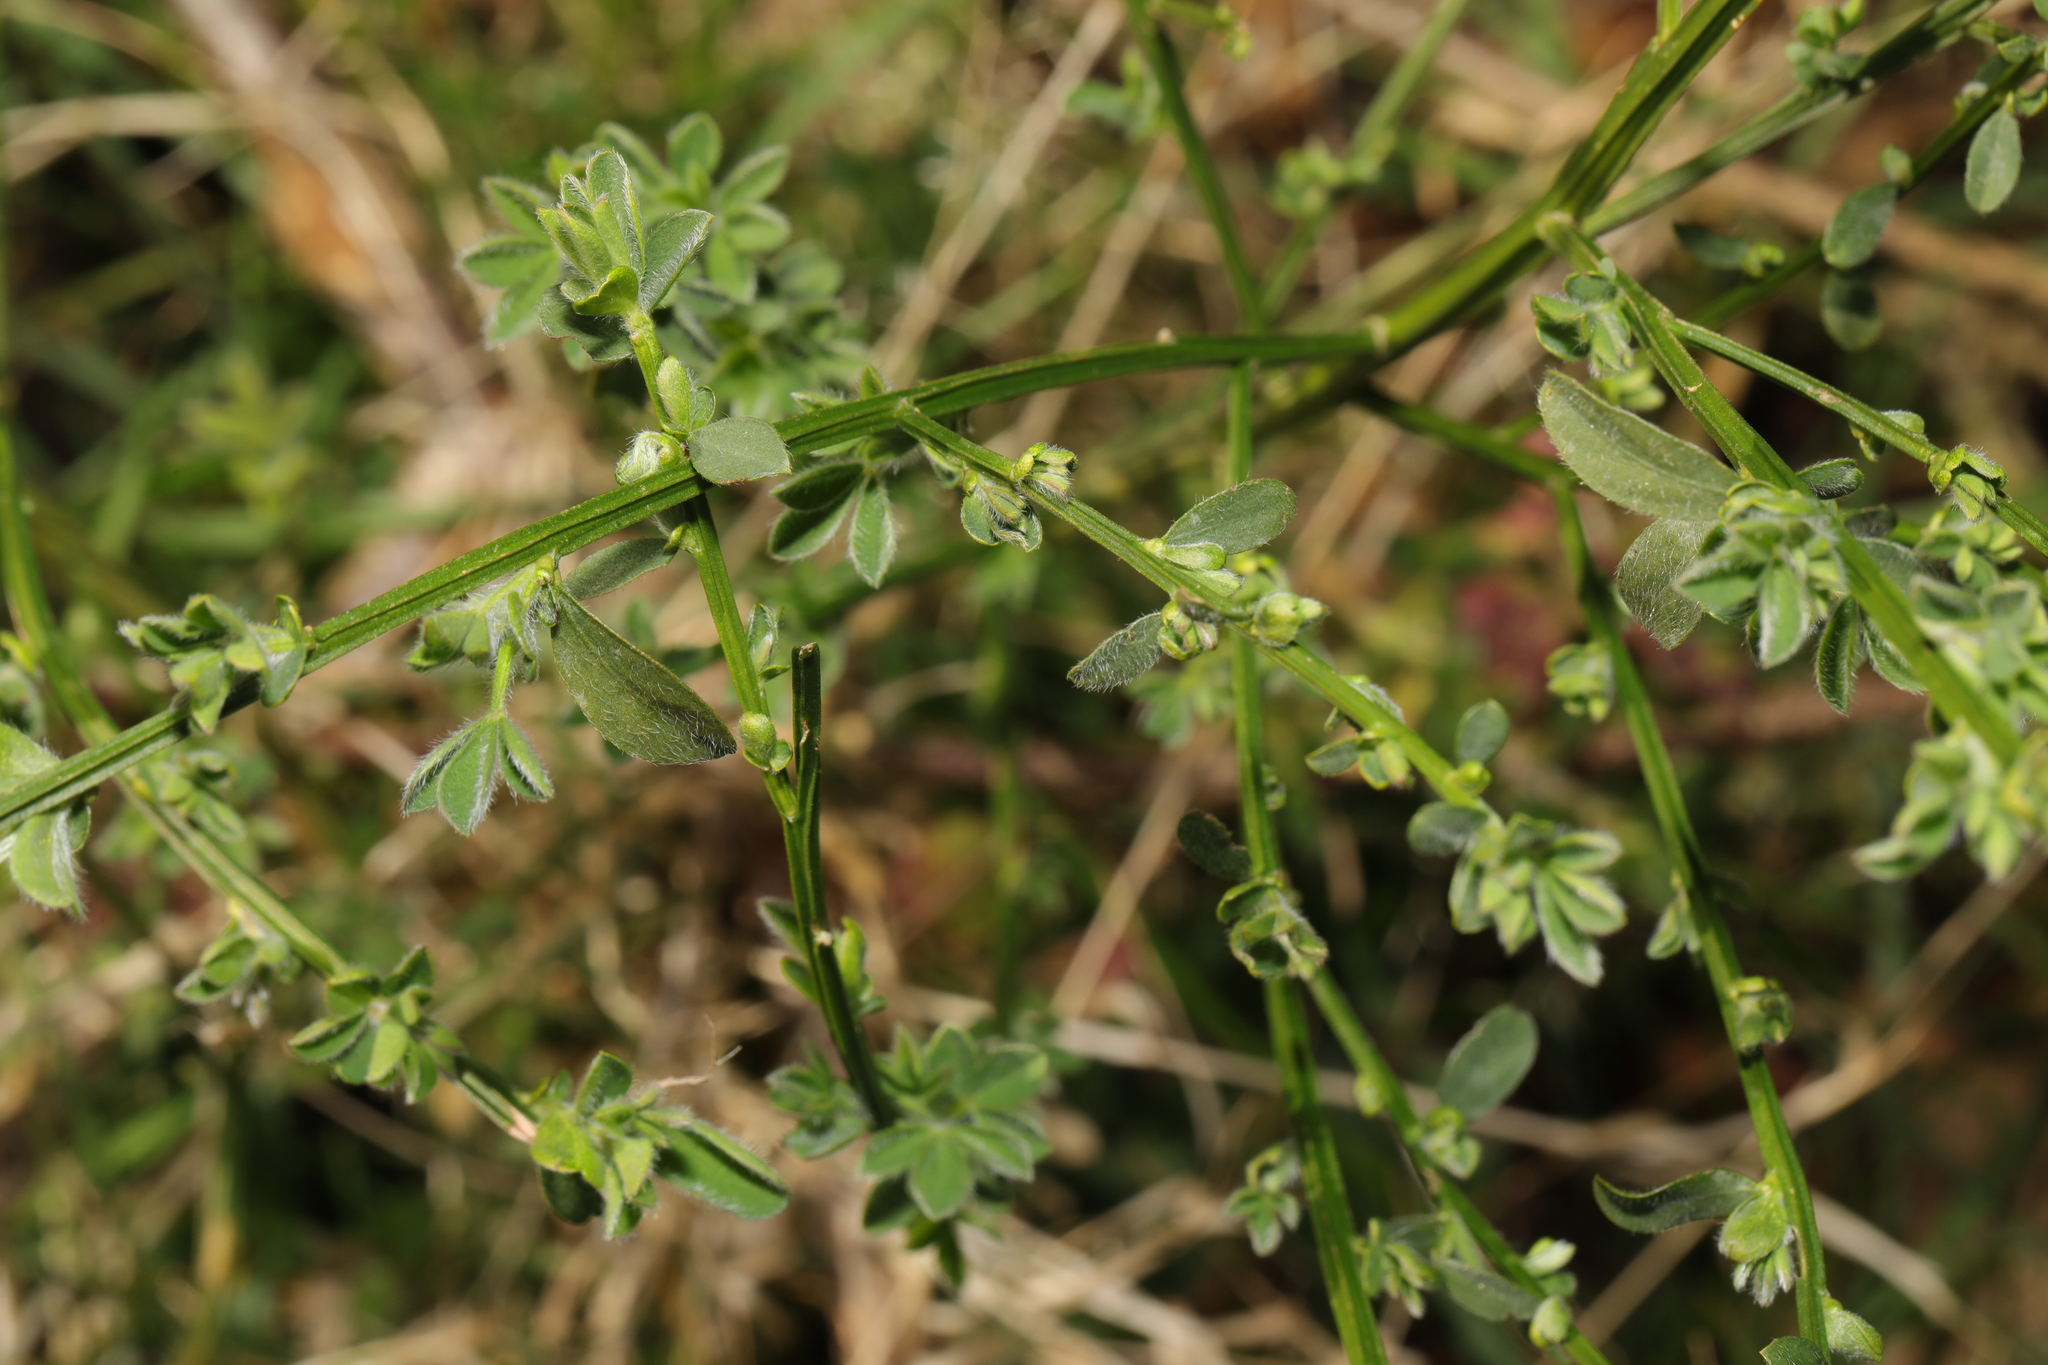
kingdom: Plantae
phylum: Tracheophyta
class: Magnoliopsida
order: Fabales
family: Fabaceae
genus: Cytisus
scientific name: Cytisus scoparius
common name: Scotch broom
